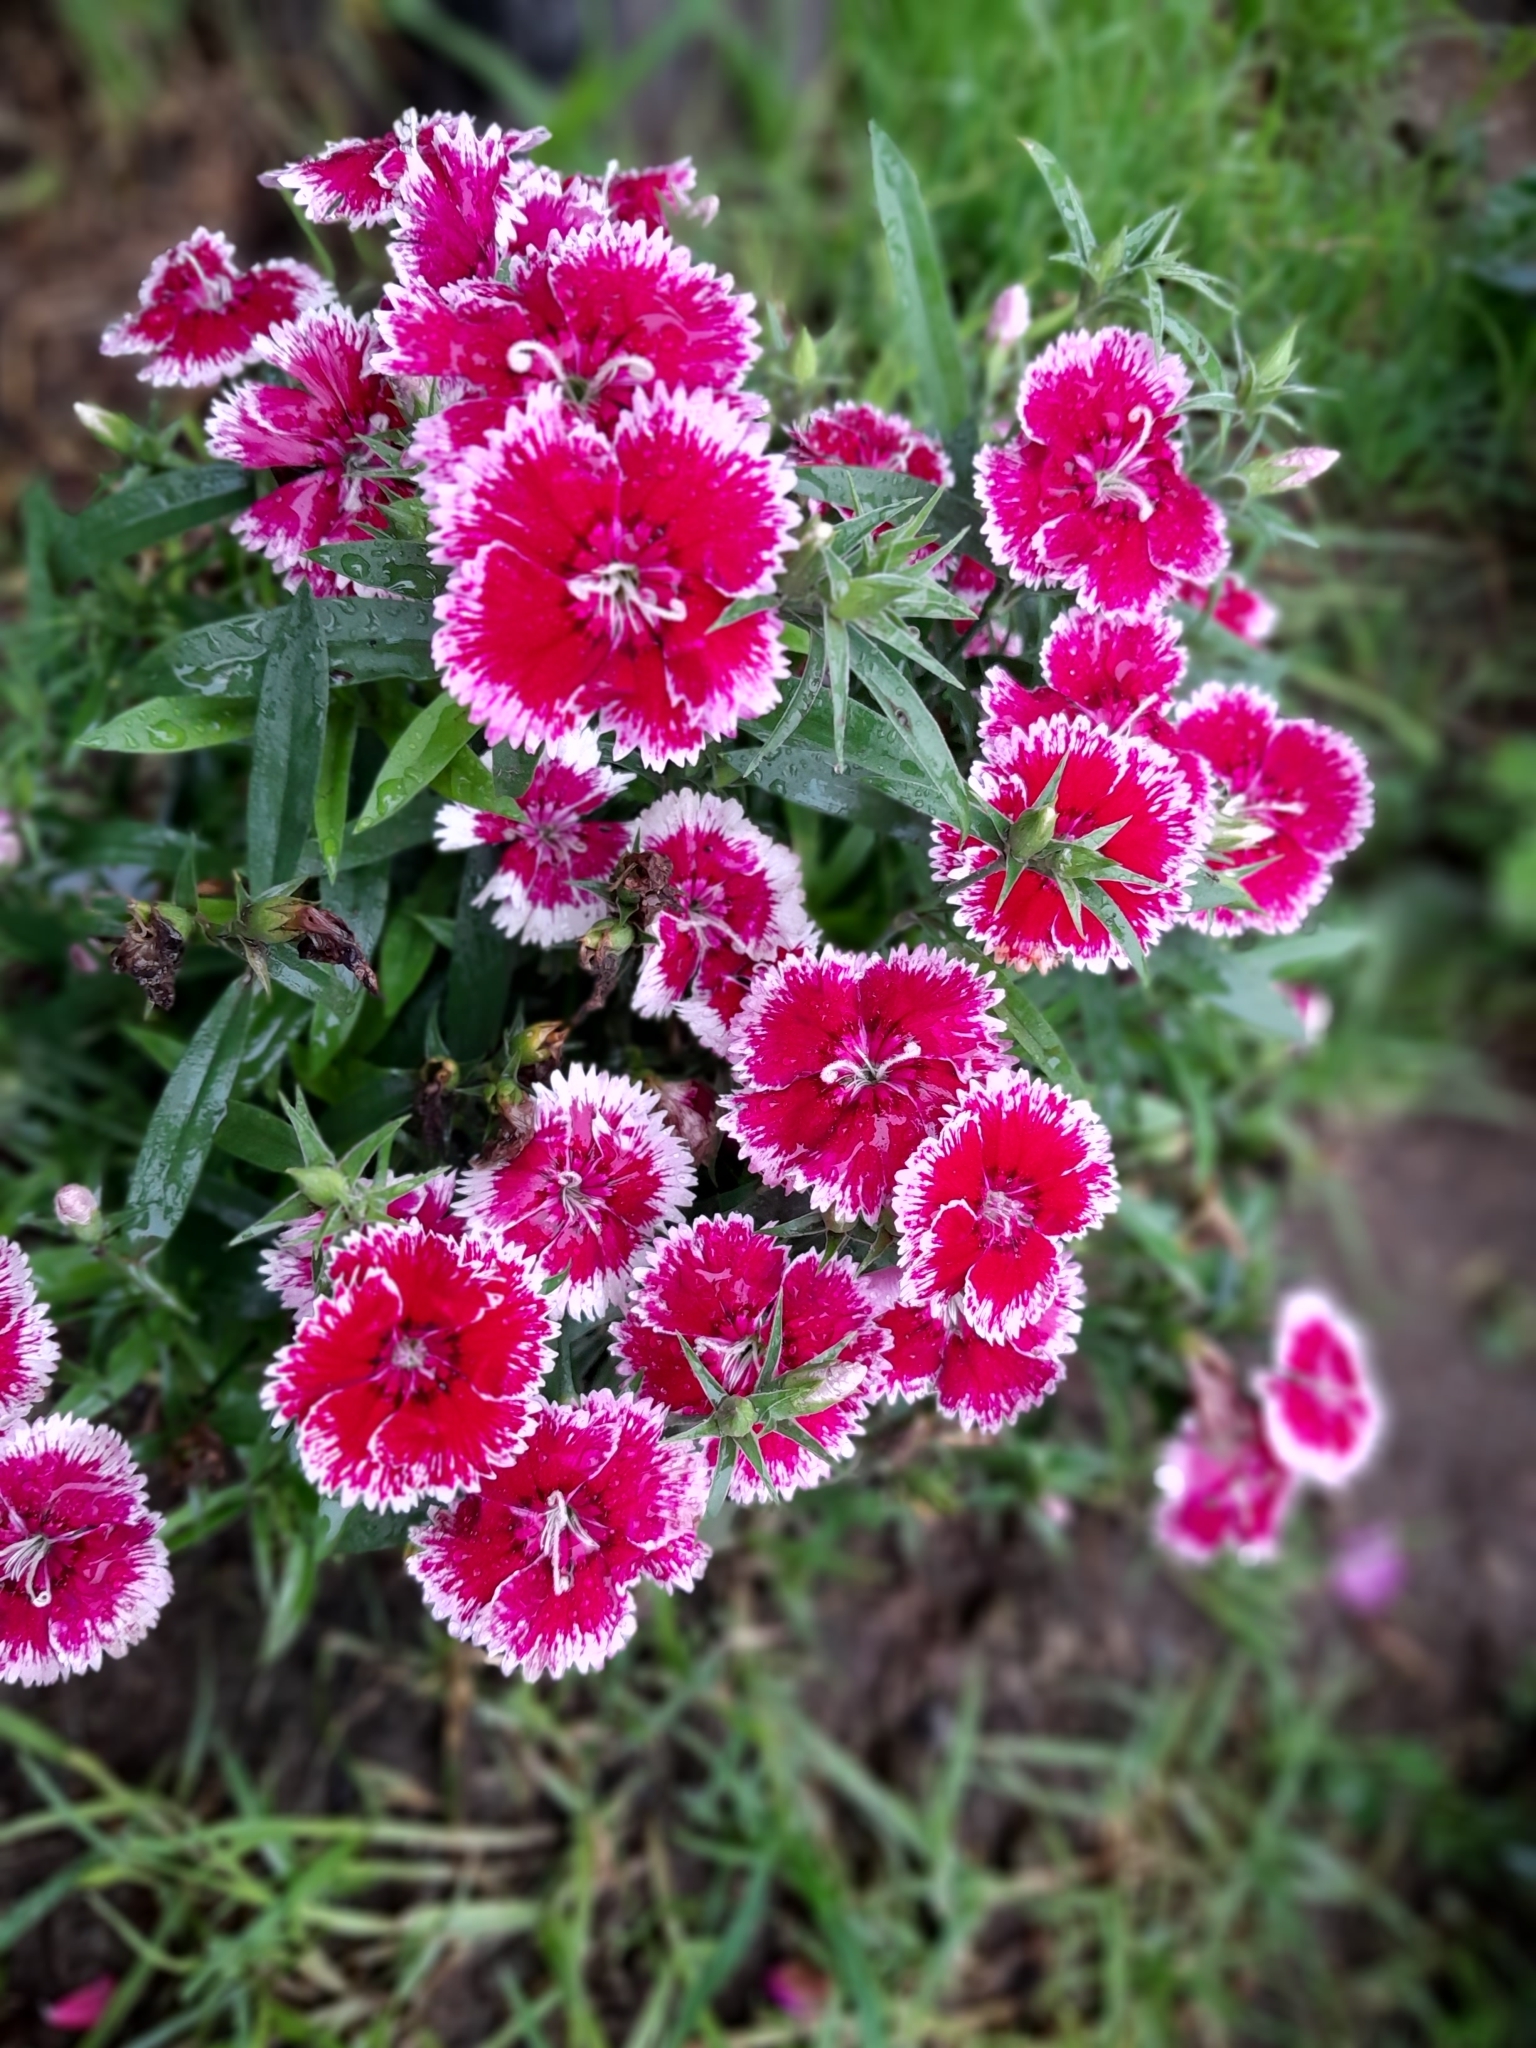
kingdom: Plantae
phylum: Tracheophyta
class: Magnoliopsida
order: Ericales
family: Balsaminaceae
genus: Impatiens
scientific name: Impatiens walleriana
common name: Buzzy lizzy
